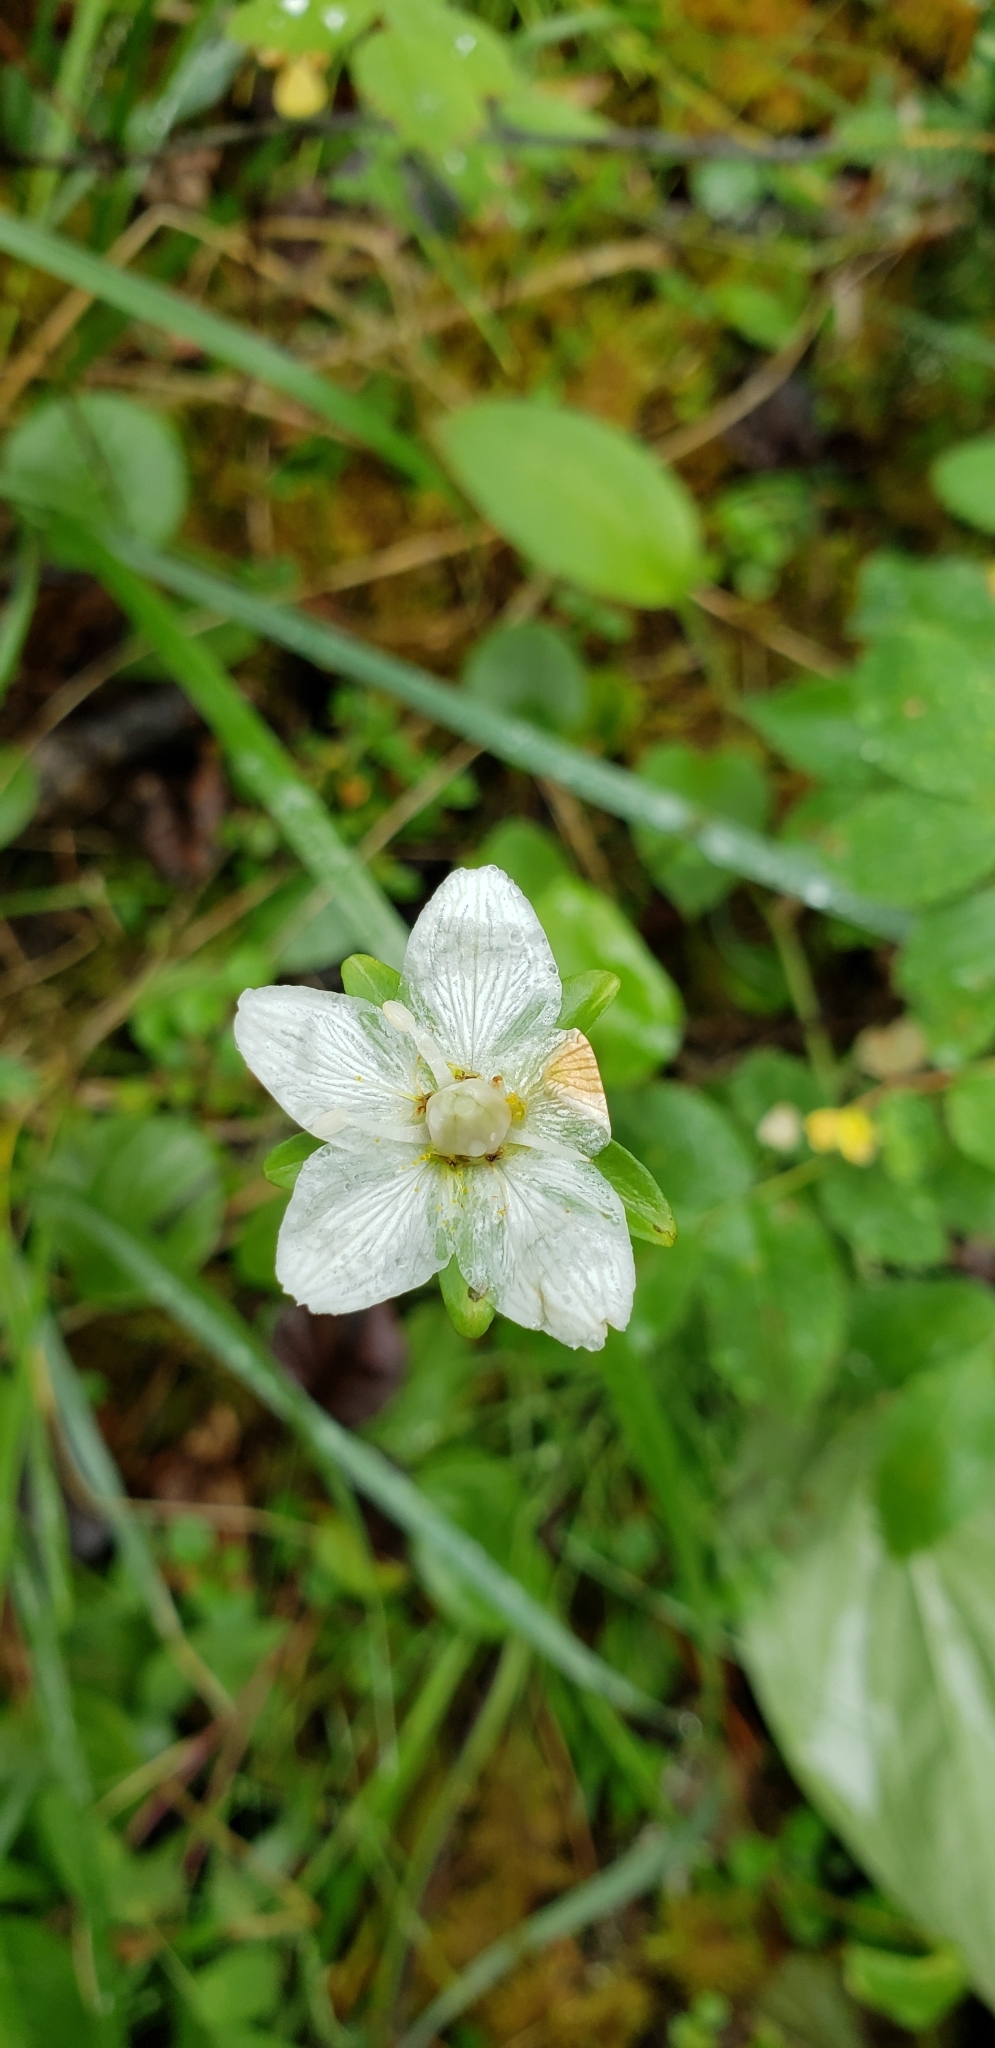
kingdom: Plantae
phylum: Tracheophyta
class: Magnoliopsida
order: Celastrales
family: Parnassiaceae
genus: Parnassia
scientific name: Parnassia palustris
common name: Grass-of-parnassus
